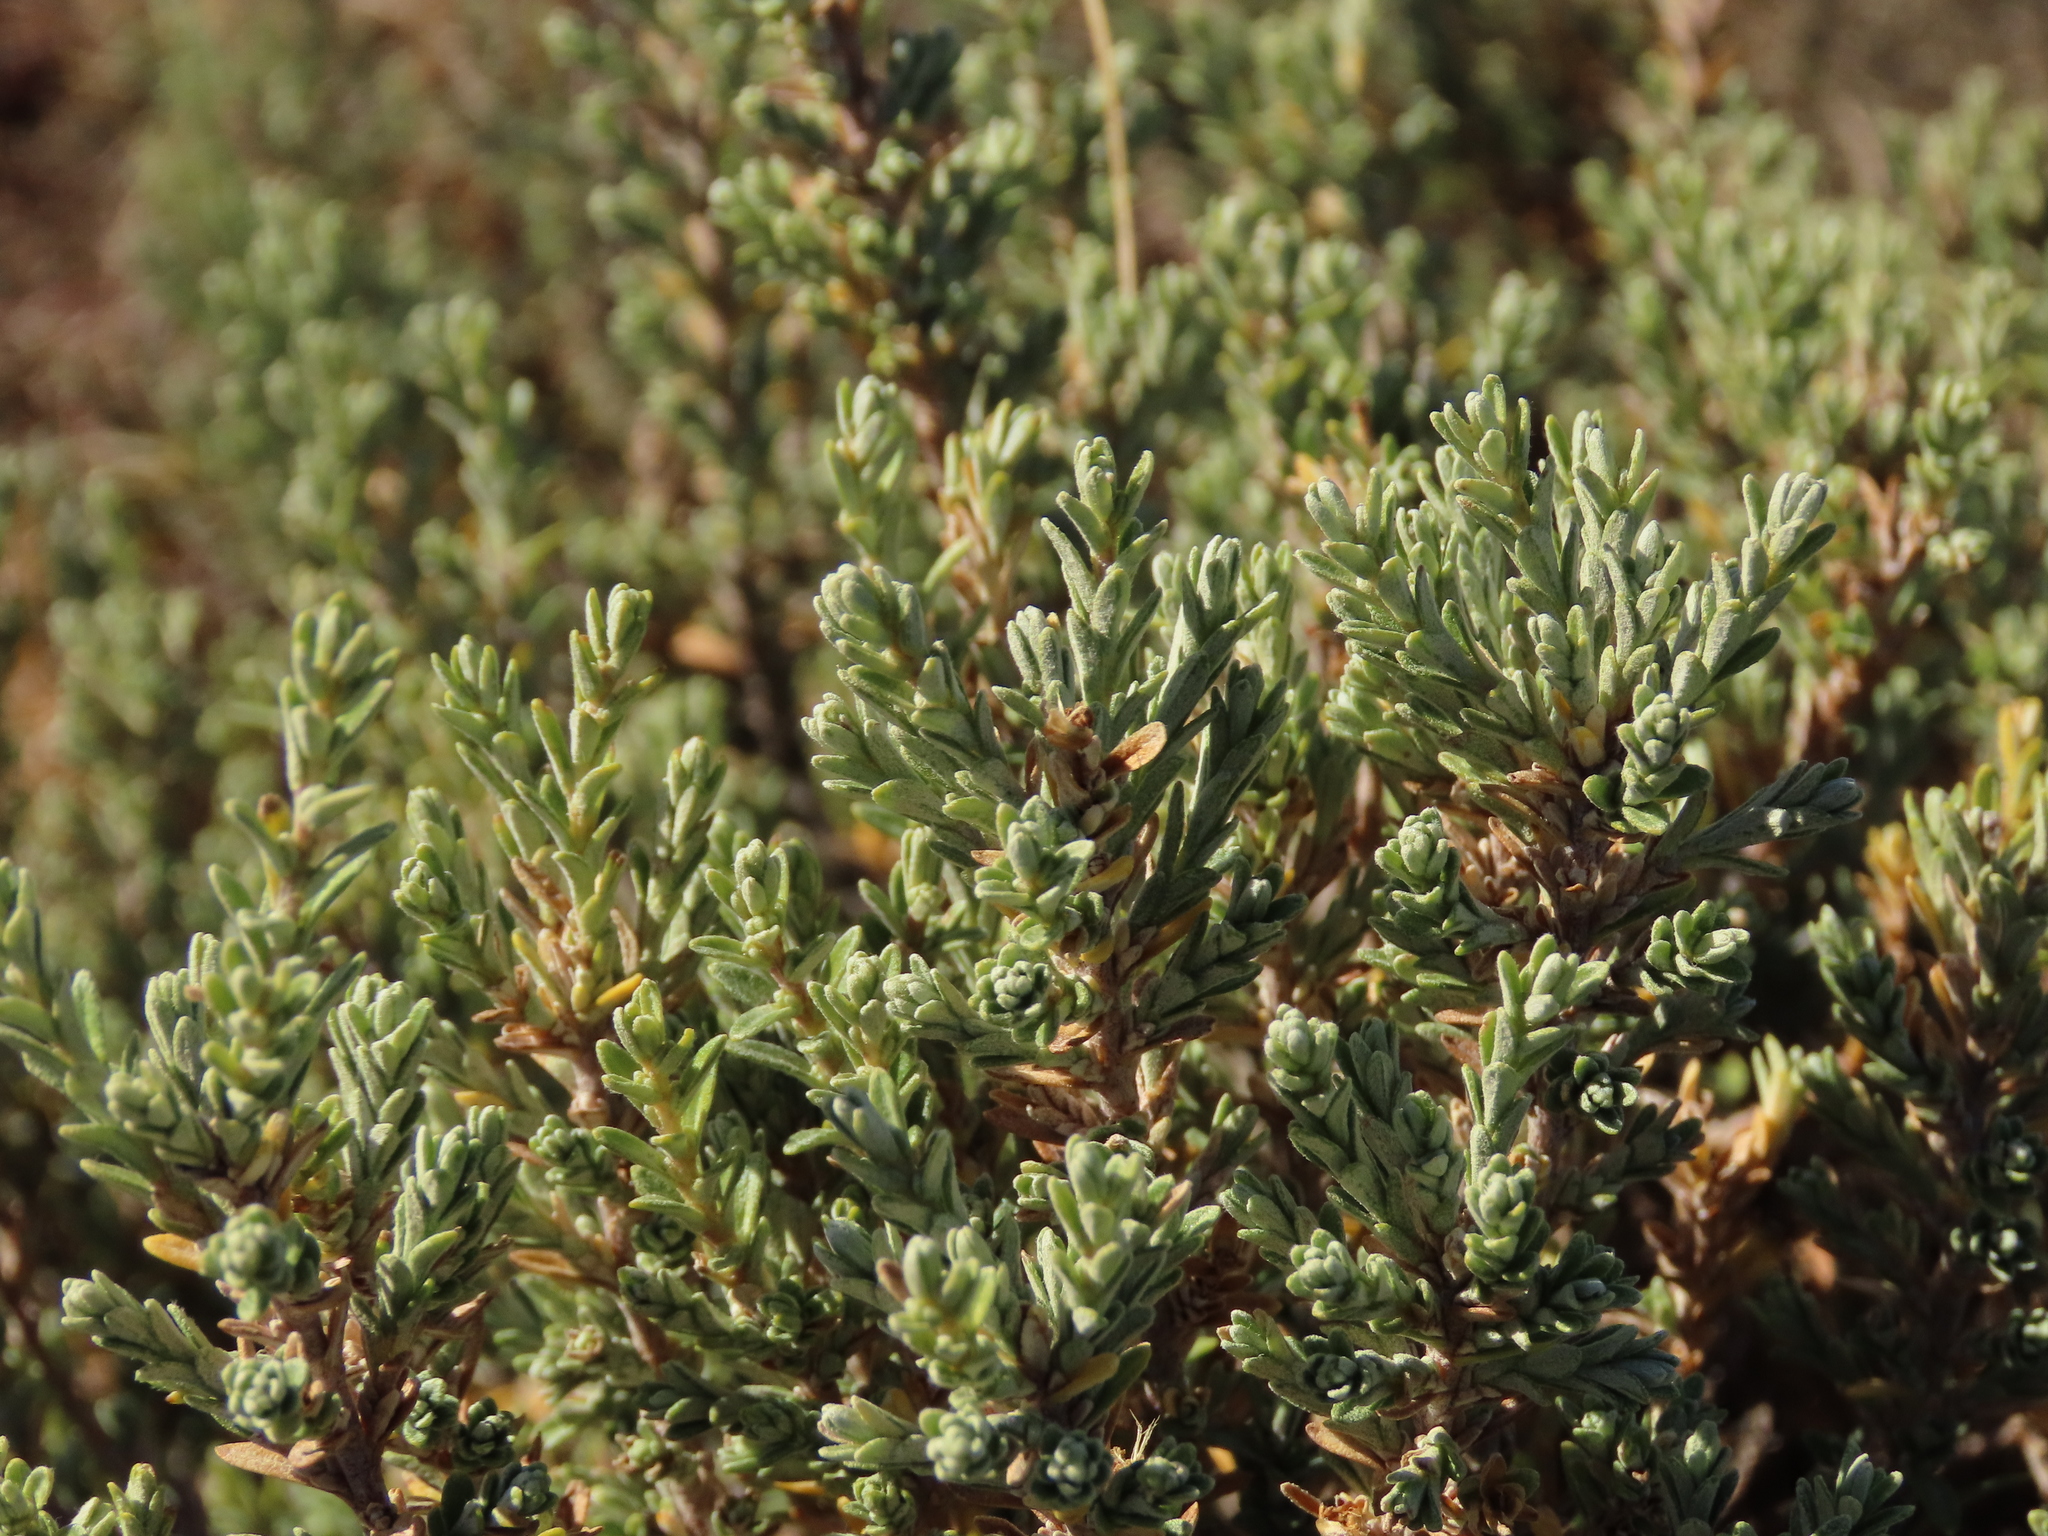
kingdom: Plantae
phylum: Tracheophyta
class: Magnoliopsida
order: Asterales
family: Asteraceae
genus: Chiliotrichum
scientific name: Chiliotrichum fuegianum
